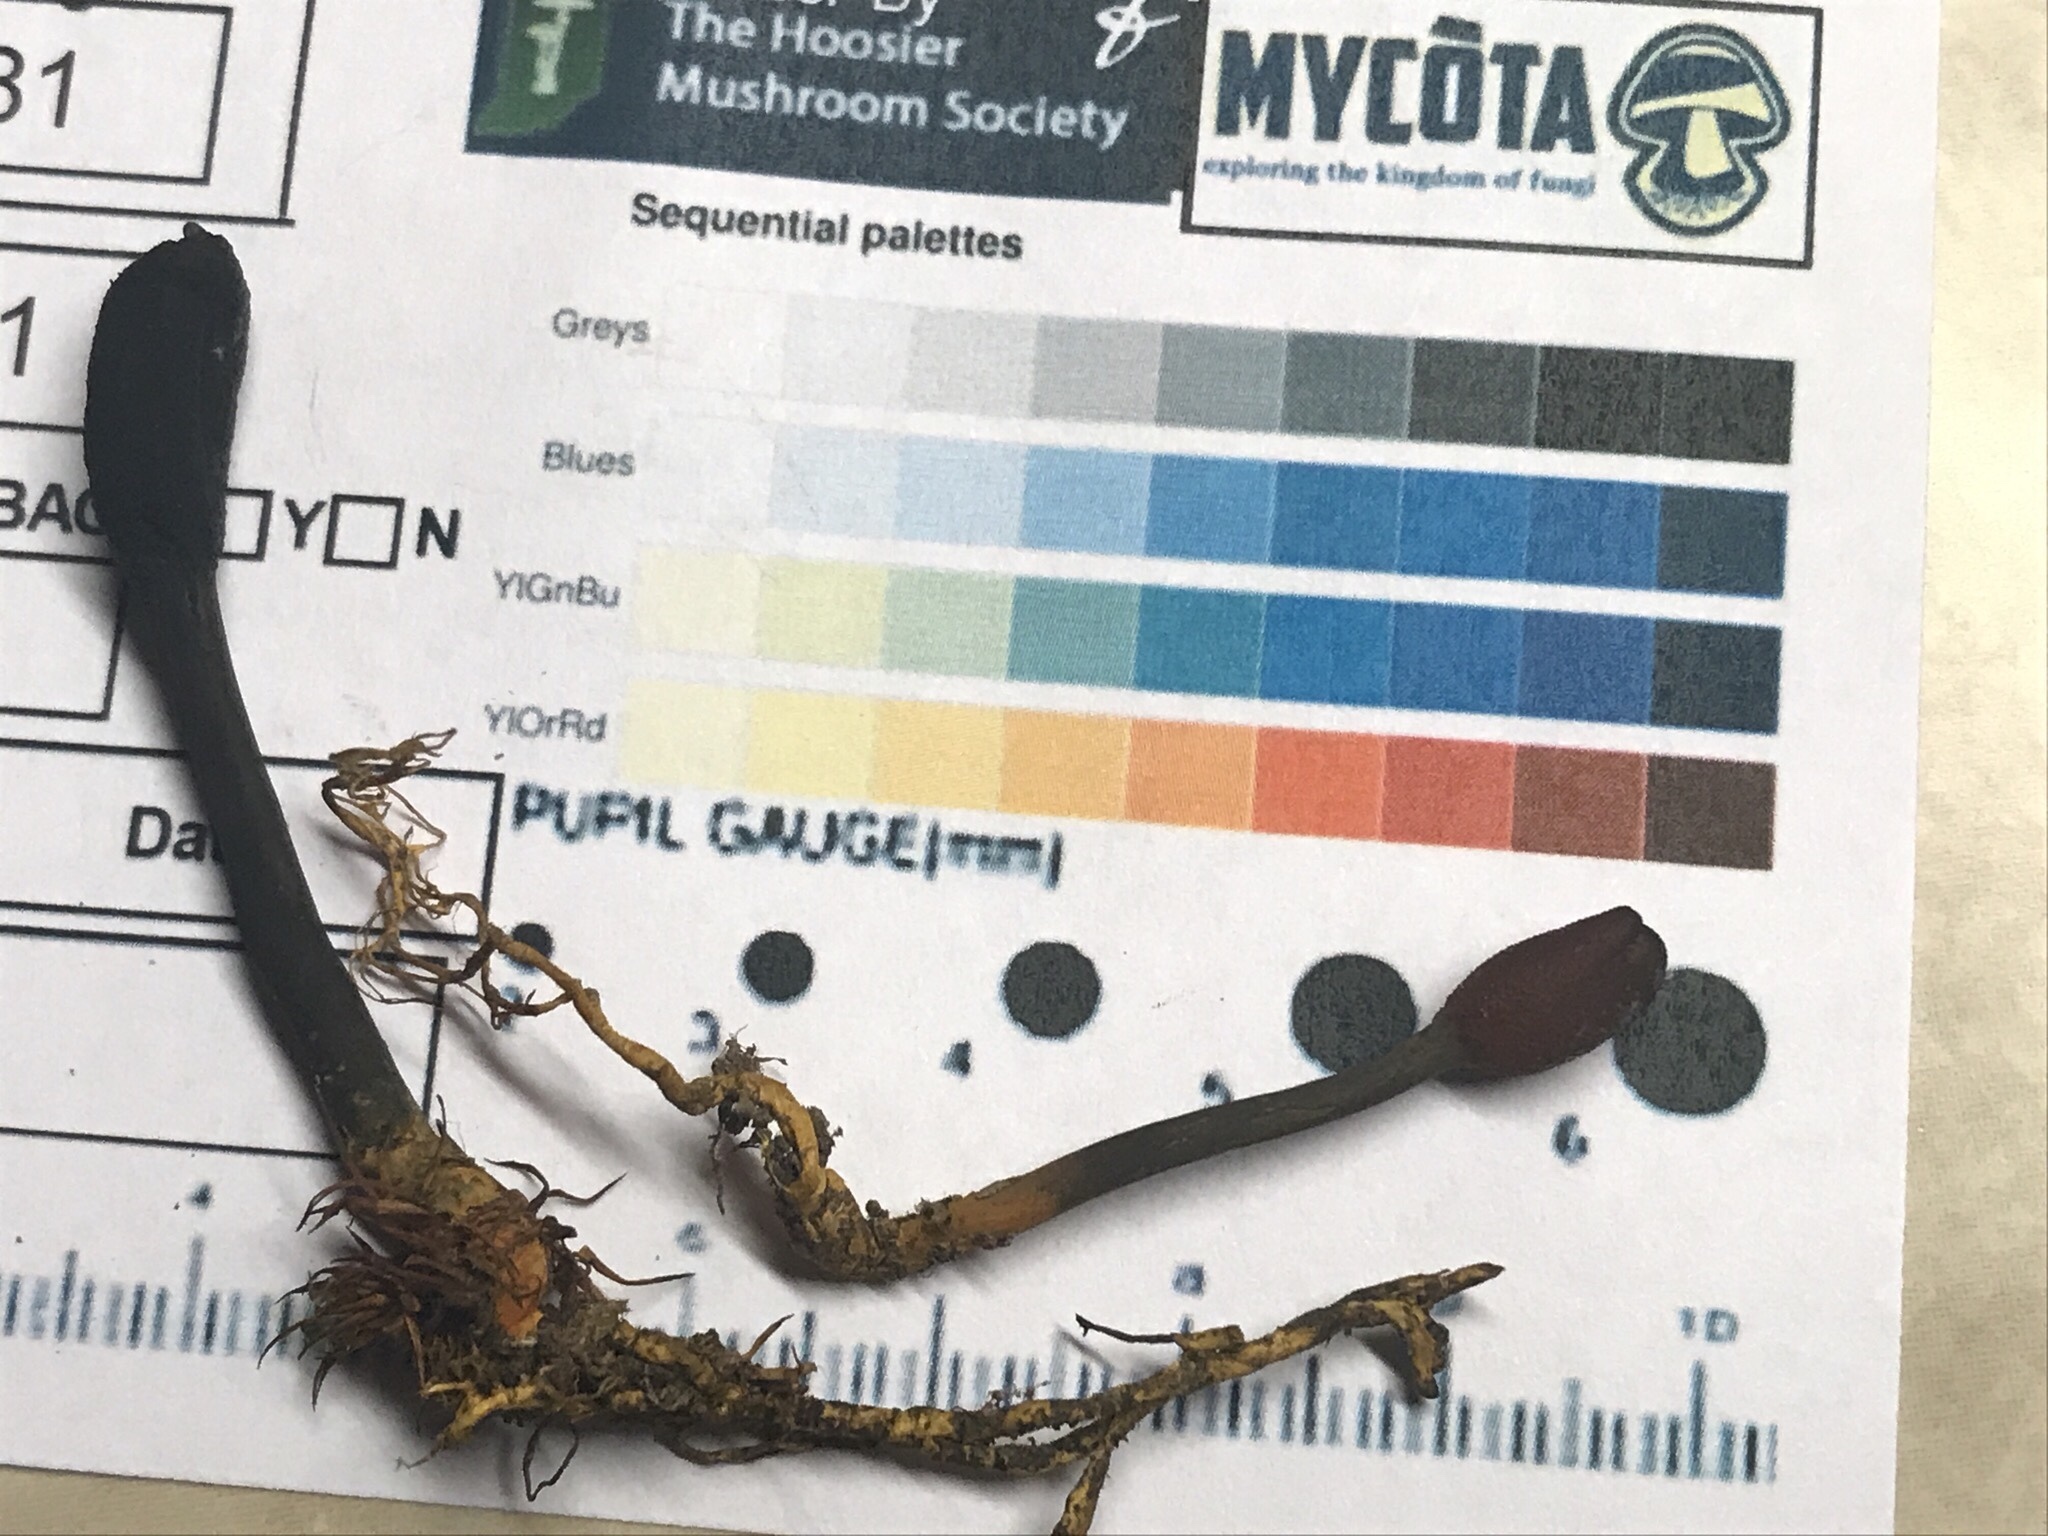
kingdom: Fungi
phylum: Ascomycota
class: Sordariomycetes
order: Hypocreales
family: Ophiocordycipitaceae
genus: Tolypocladium
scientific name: Tolypocladium ophioglossoides
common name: Snaketongue truffleclub
